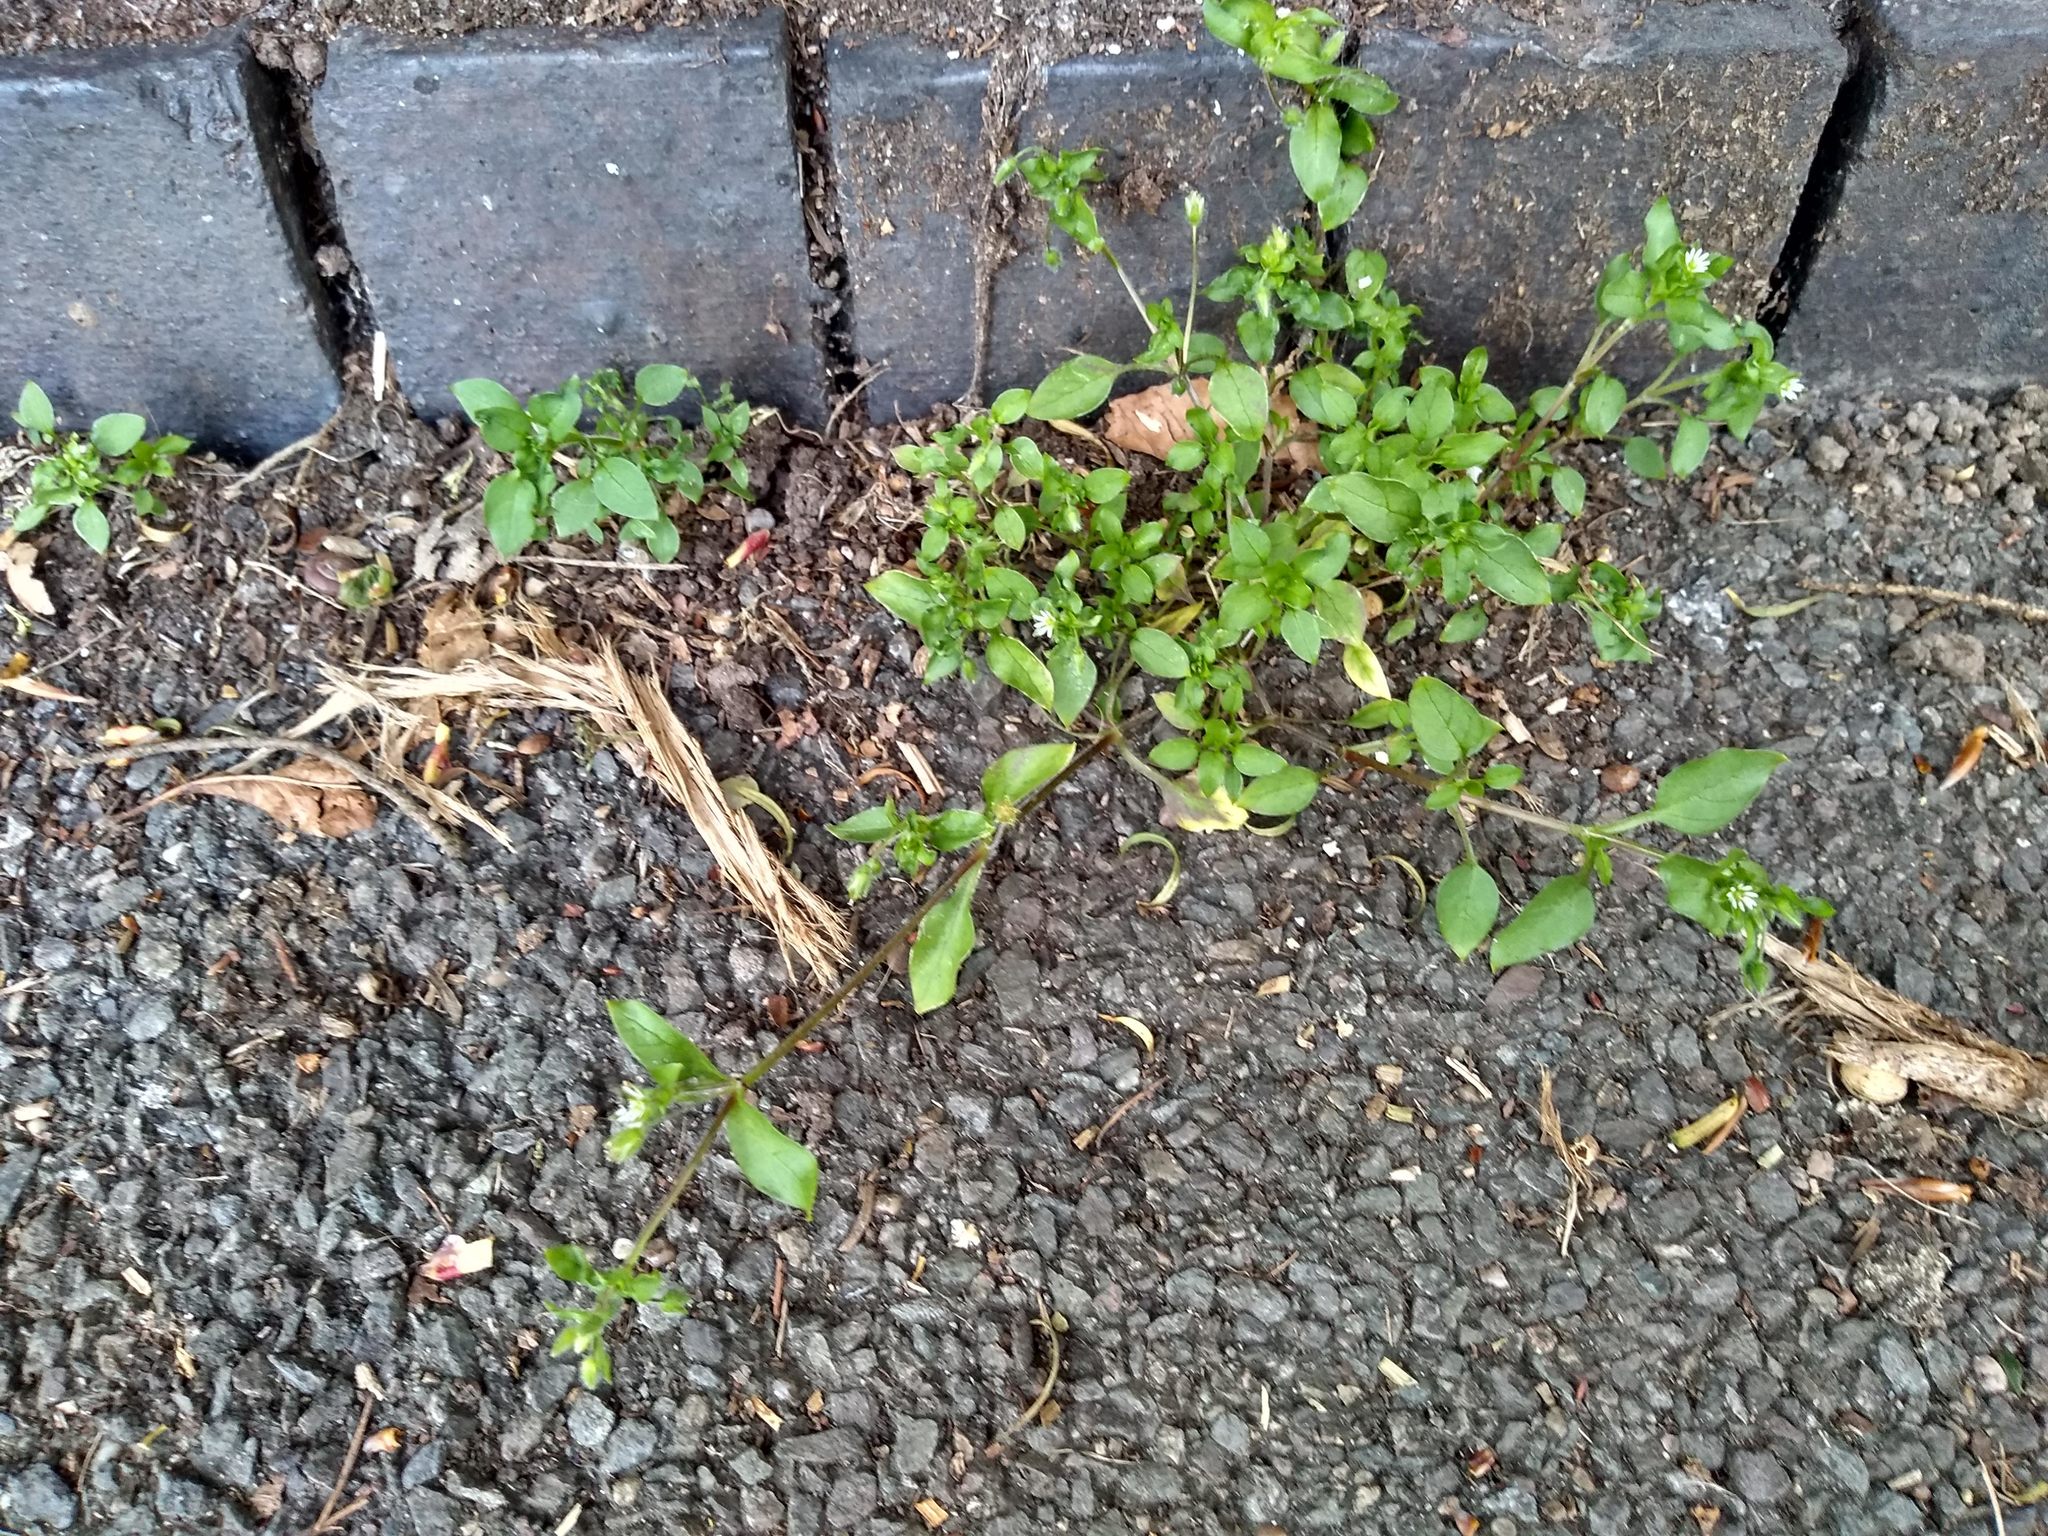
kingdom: Plantae
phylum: Tracheophyta
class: Magnoliopsida
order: Caryophyllales
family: Caryophyllaceae
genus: Stellaria
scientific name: Stellaria media
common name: Common chickweed
